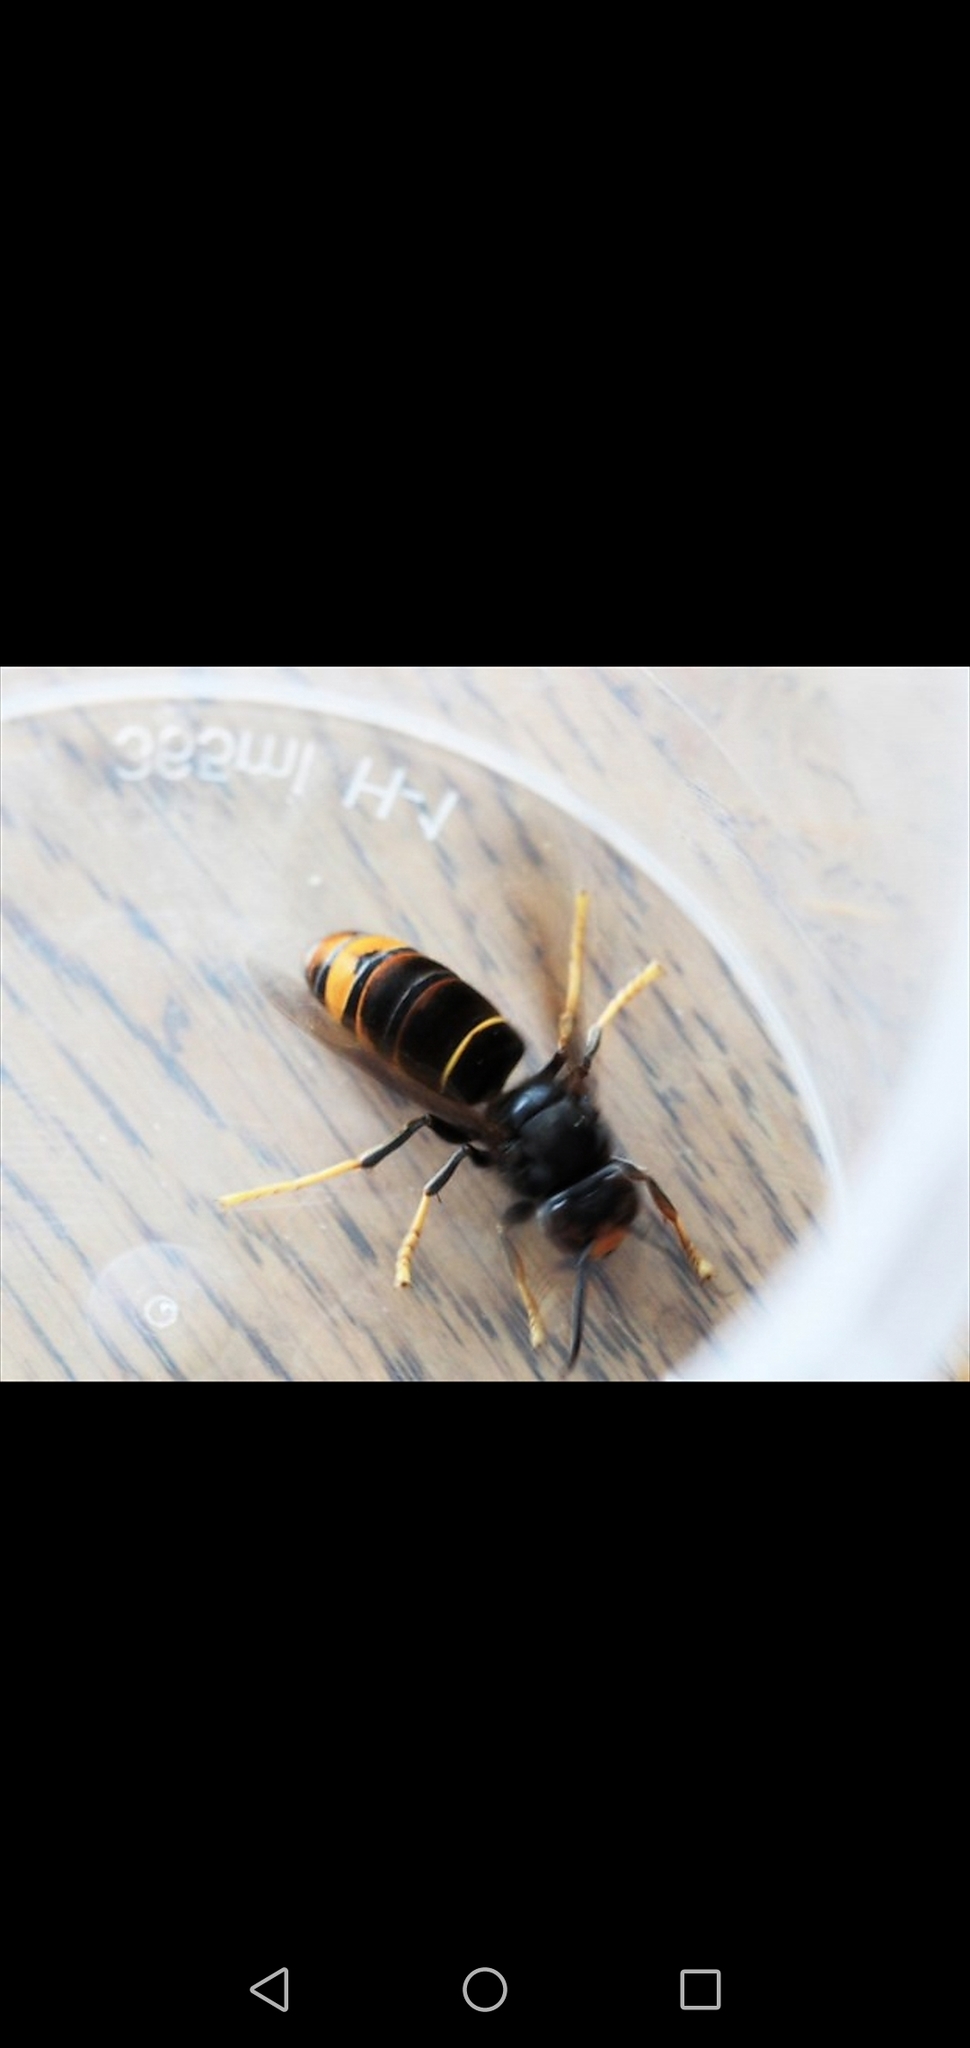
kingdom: Animalia
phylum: Arthropoda
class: Insecta
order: Hymenoptera
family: Vespidae
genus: Vespa
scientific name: Vespa velutina
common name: Asian hornet
